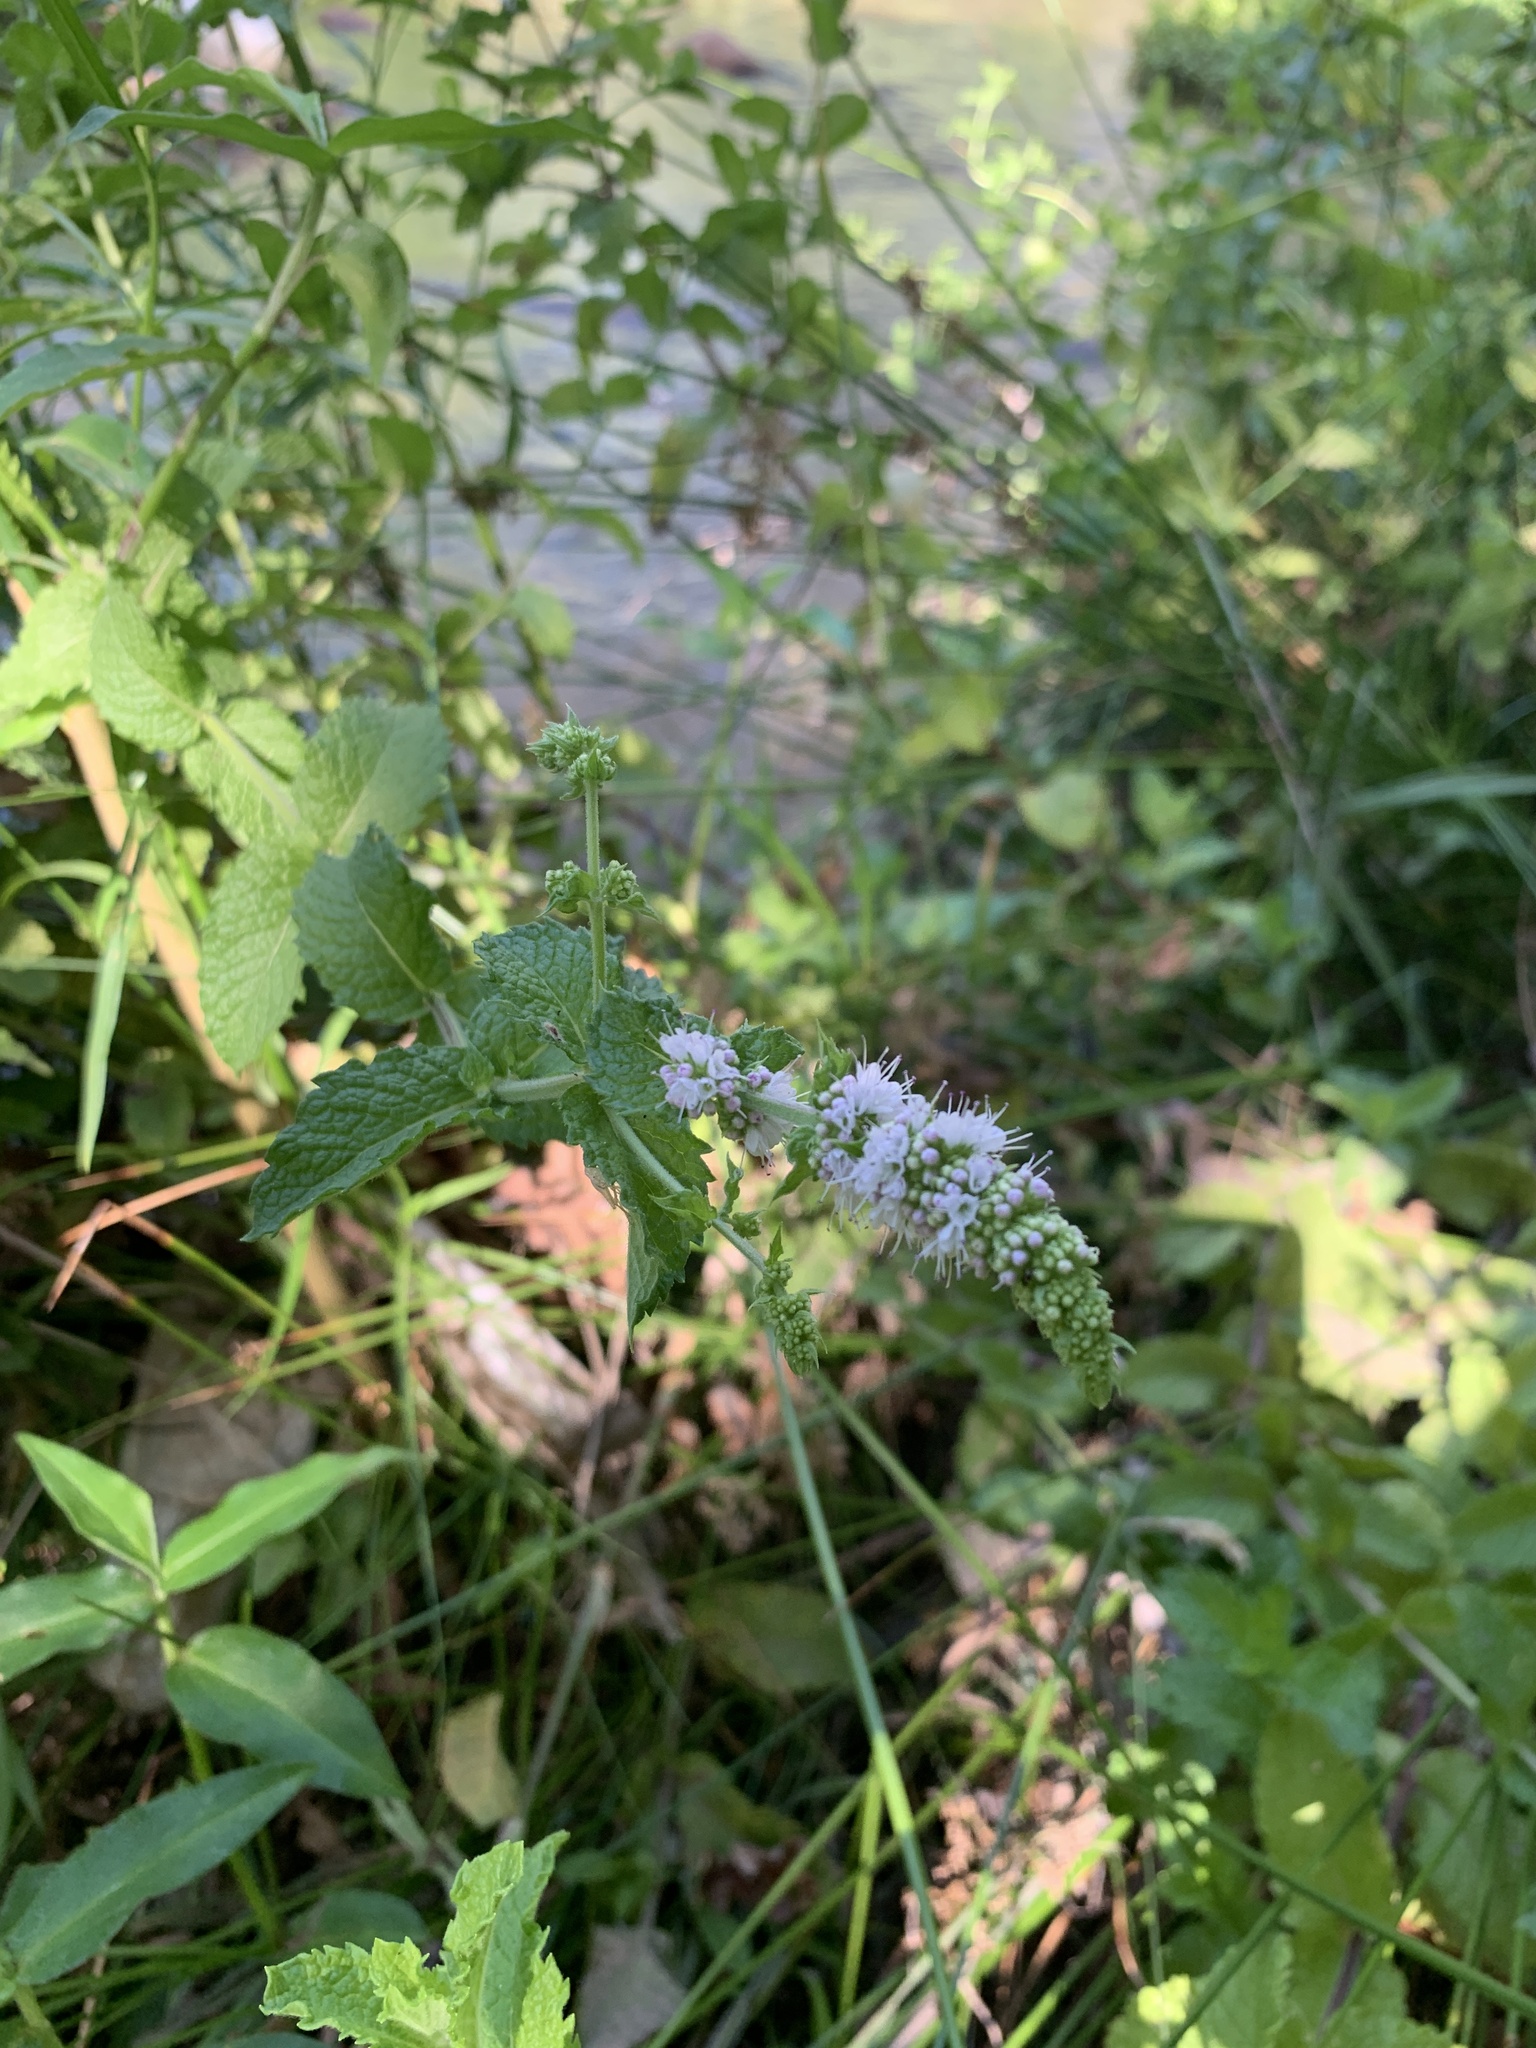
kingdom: Plantae
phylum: Tracheophyta
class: Magnoliopsida
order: Lamiales
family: Lamiaceae
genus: Mentha
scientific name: Mentha villosa-nervata
